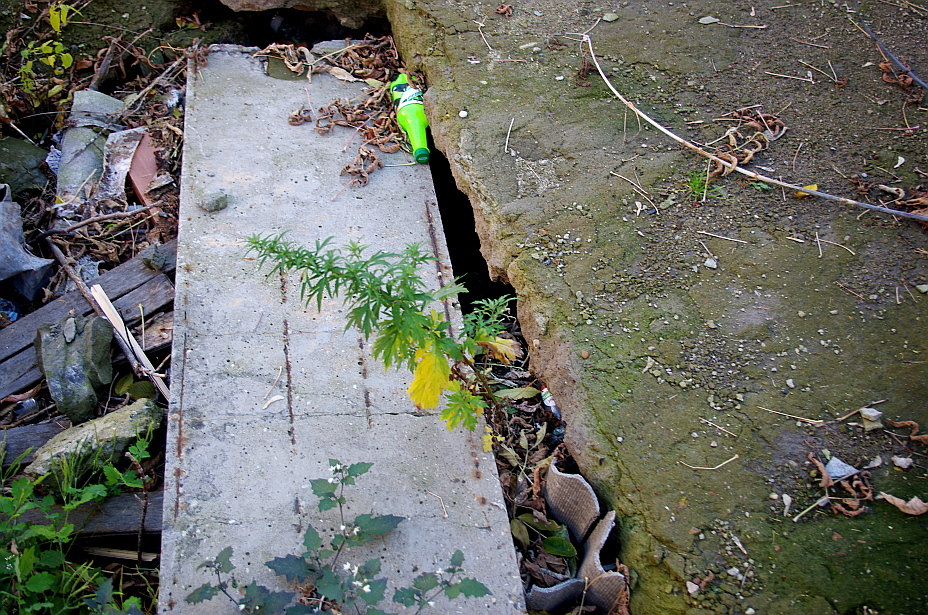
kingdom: Plantae
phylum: Tracheophyta
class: Magnoliopsida
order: Asterales
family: Asteraceae
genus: Artemisia
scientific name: Artemisia vulgaris
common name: Mugwort
